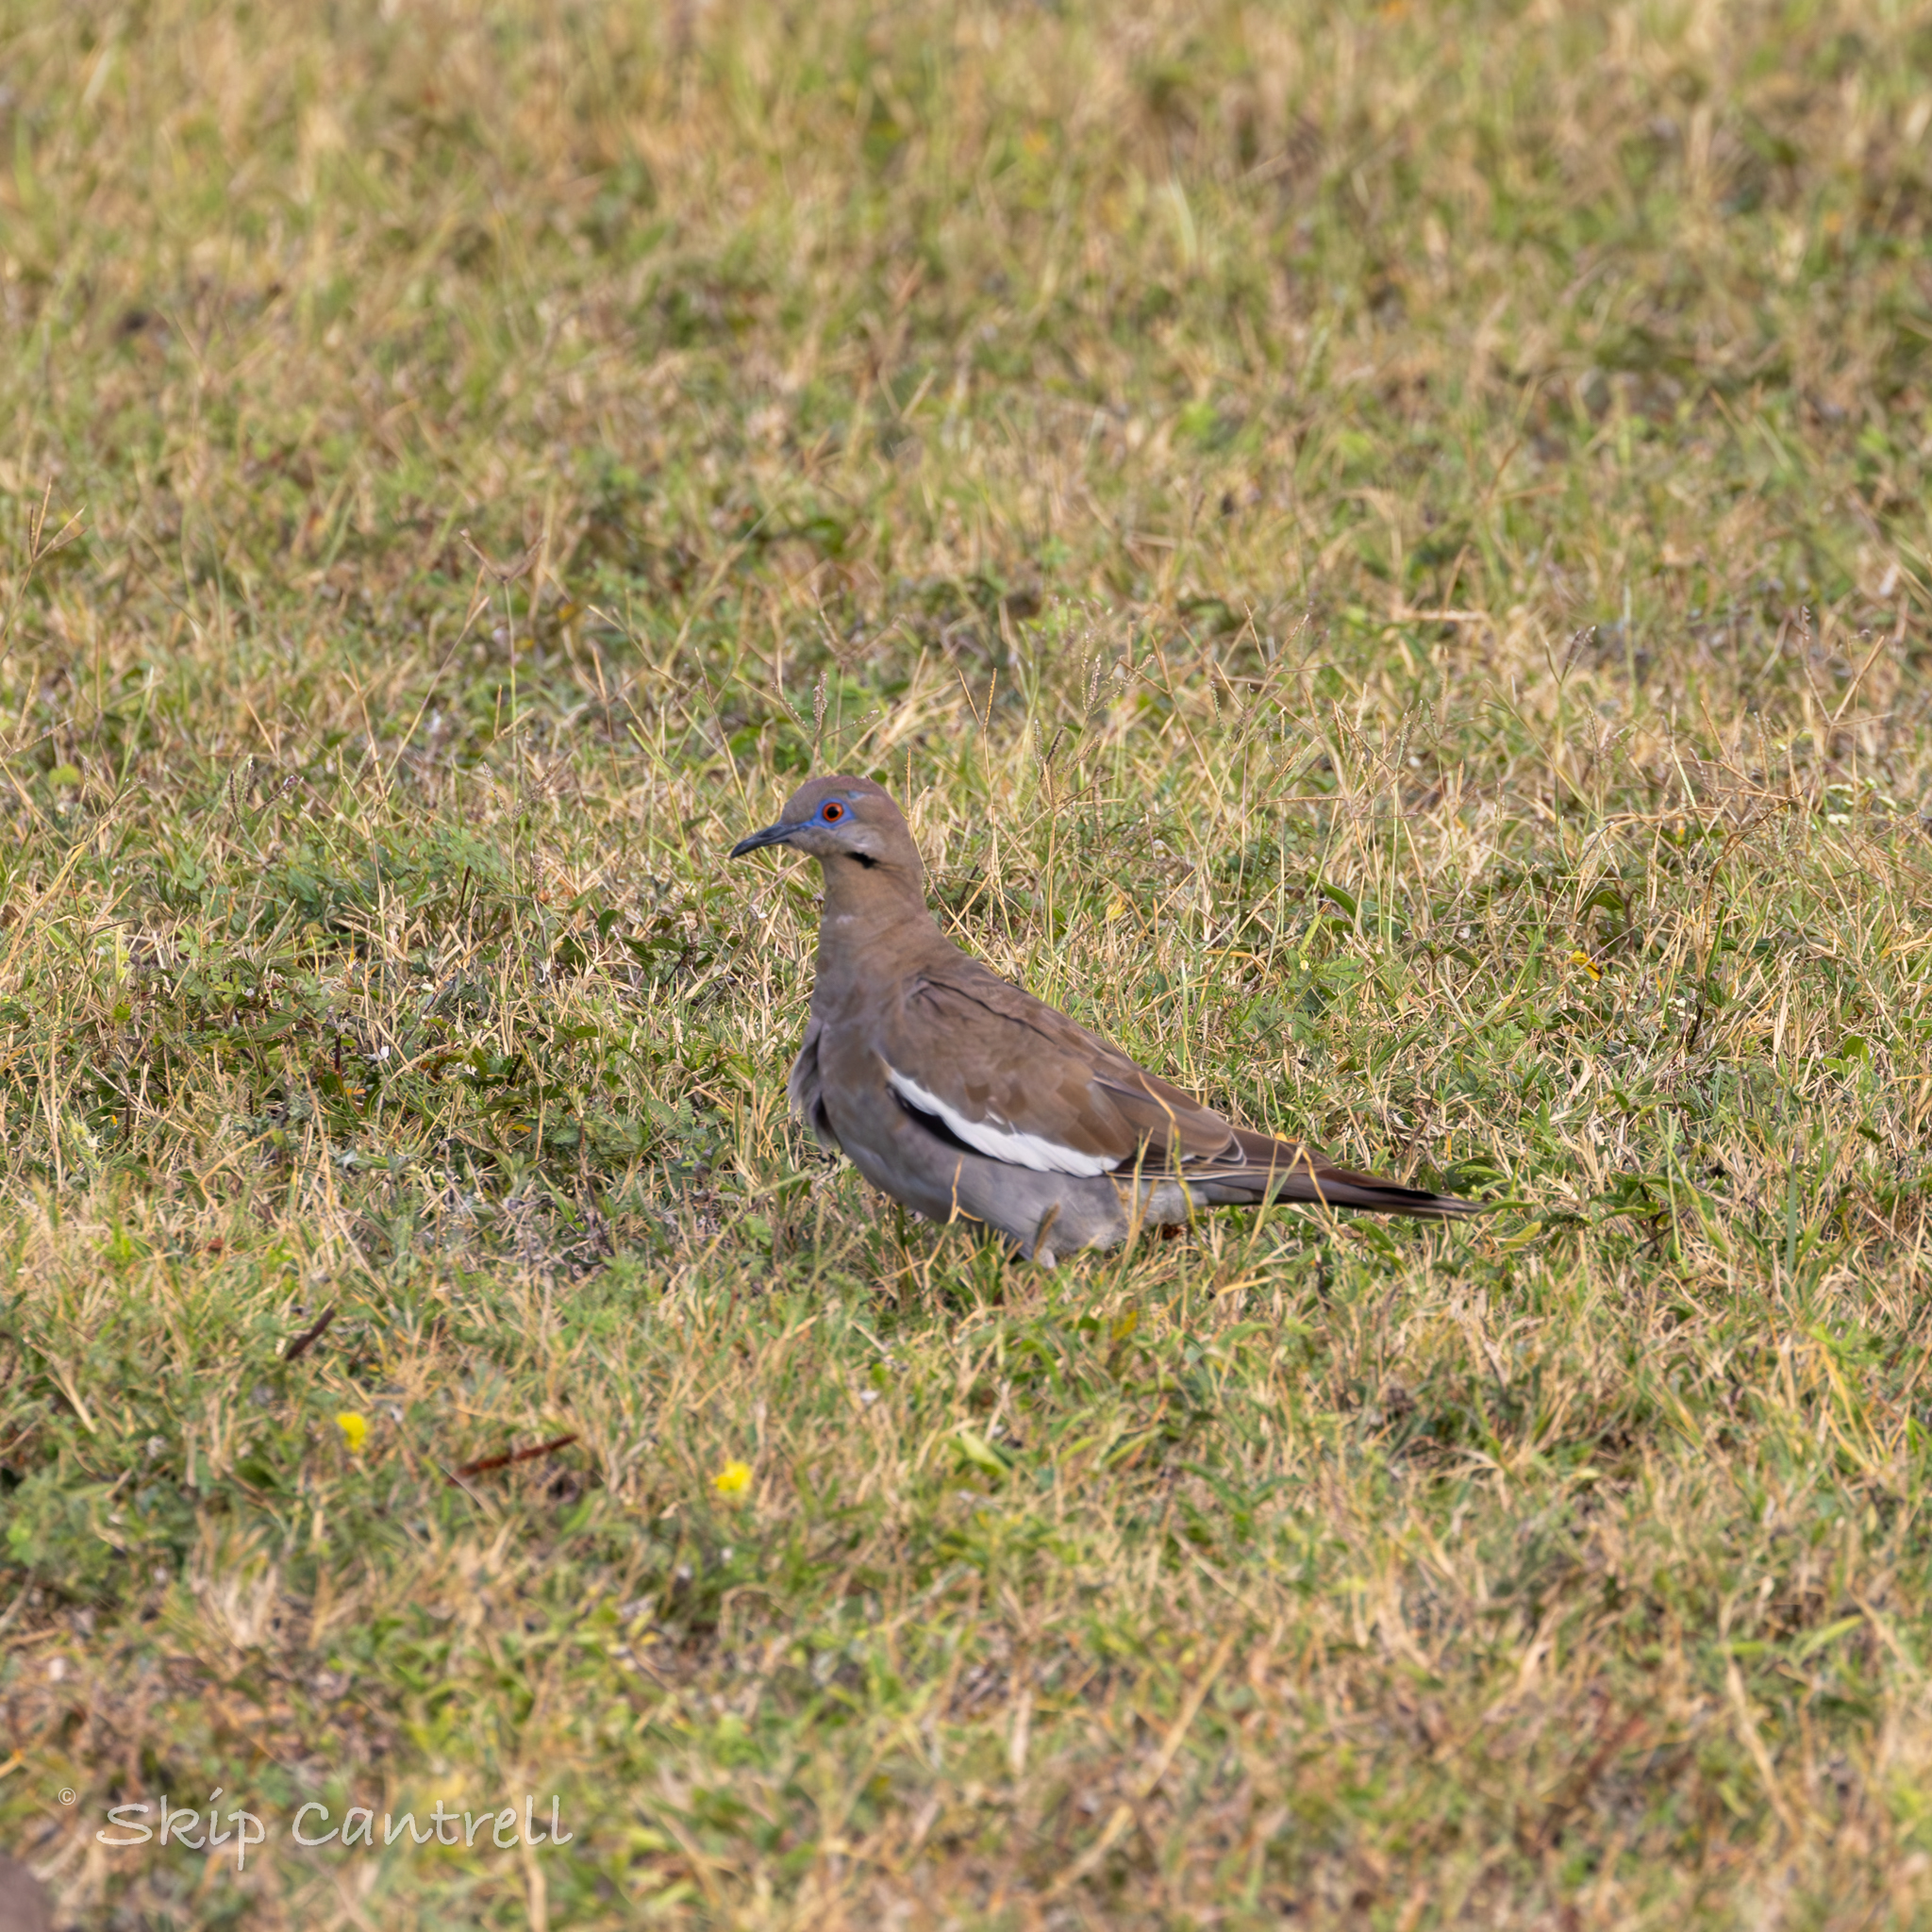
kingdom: Animalia
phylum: Chordata
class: Aves
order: Columbiformes
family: Columbidae
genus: Zenaida
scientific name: Zenaida asiatica
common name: White-winged dove
